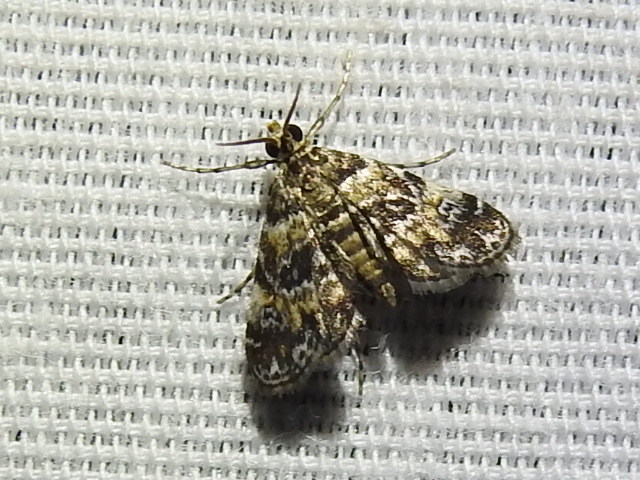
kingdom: Animalia
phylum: Arthropoda
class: Insecta
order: Lepidoptera
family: Crambidae
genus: Elophila
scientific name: Elophila obliteralis
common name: Waterlily leafcutter moth
